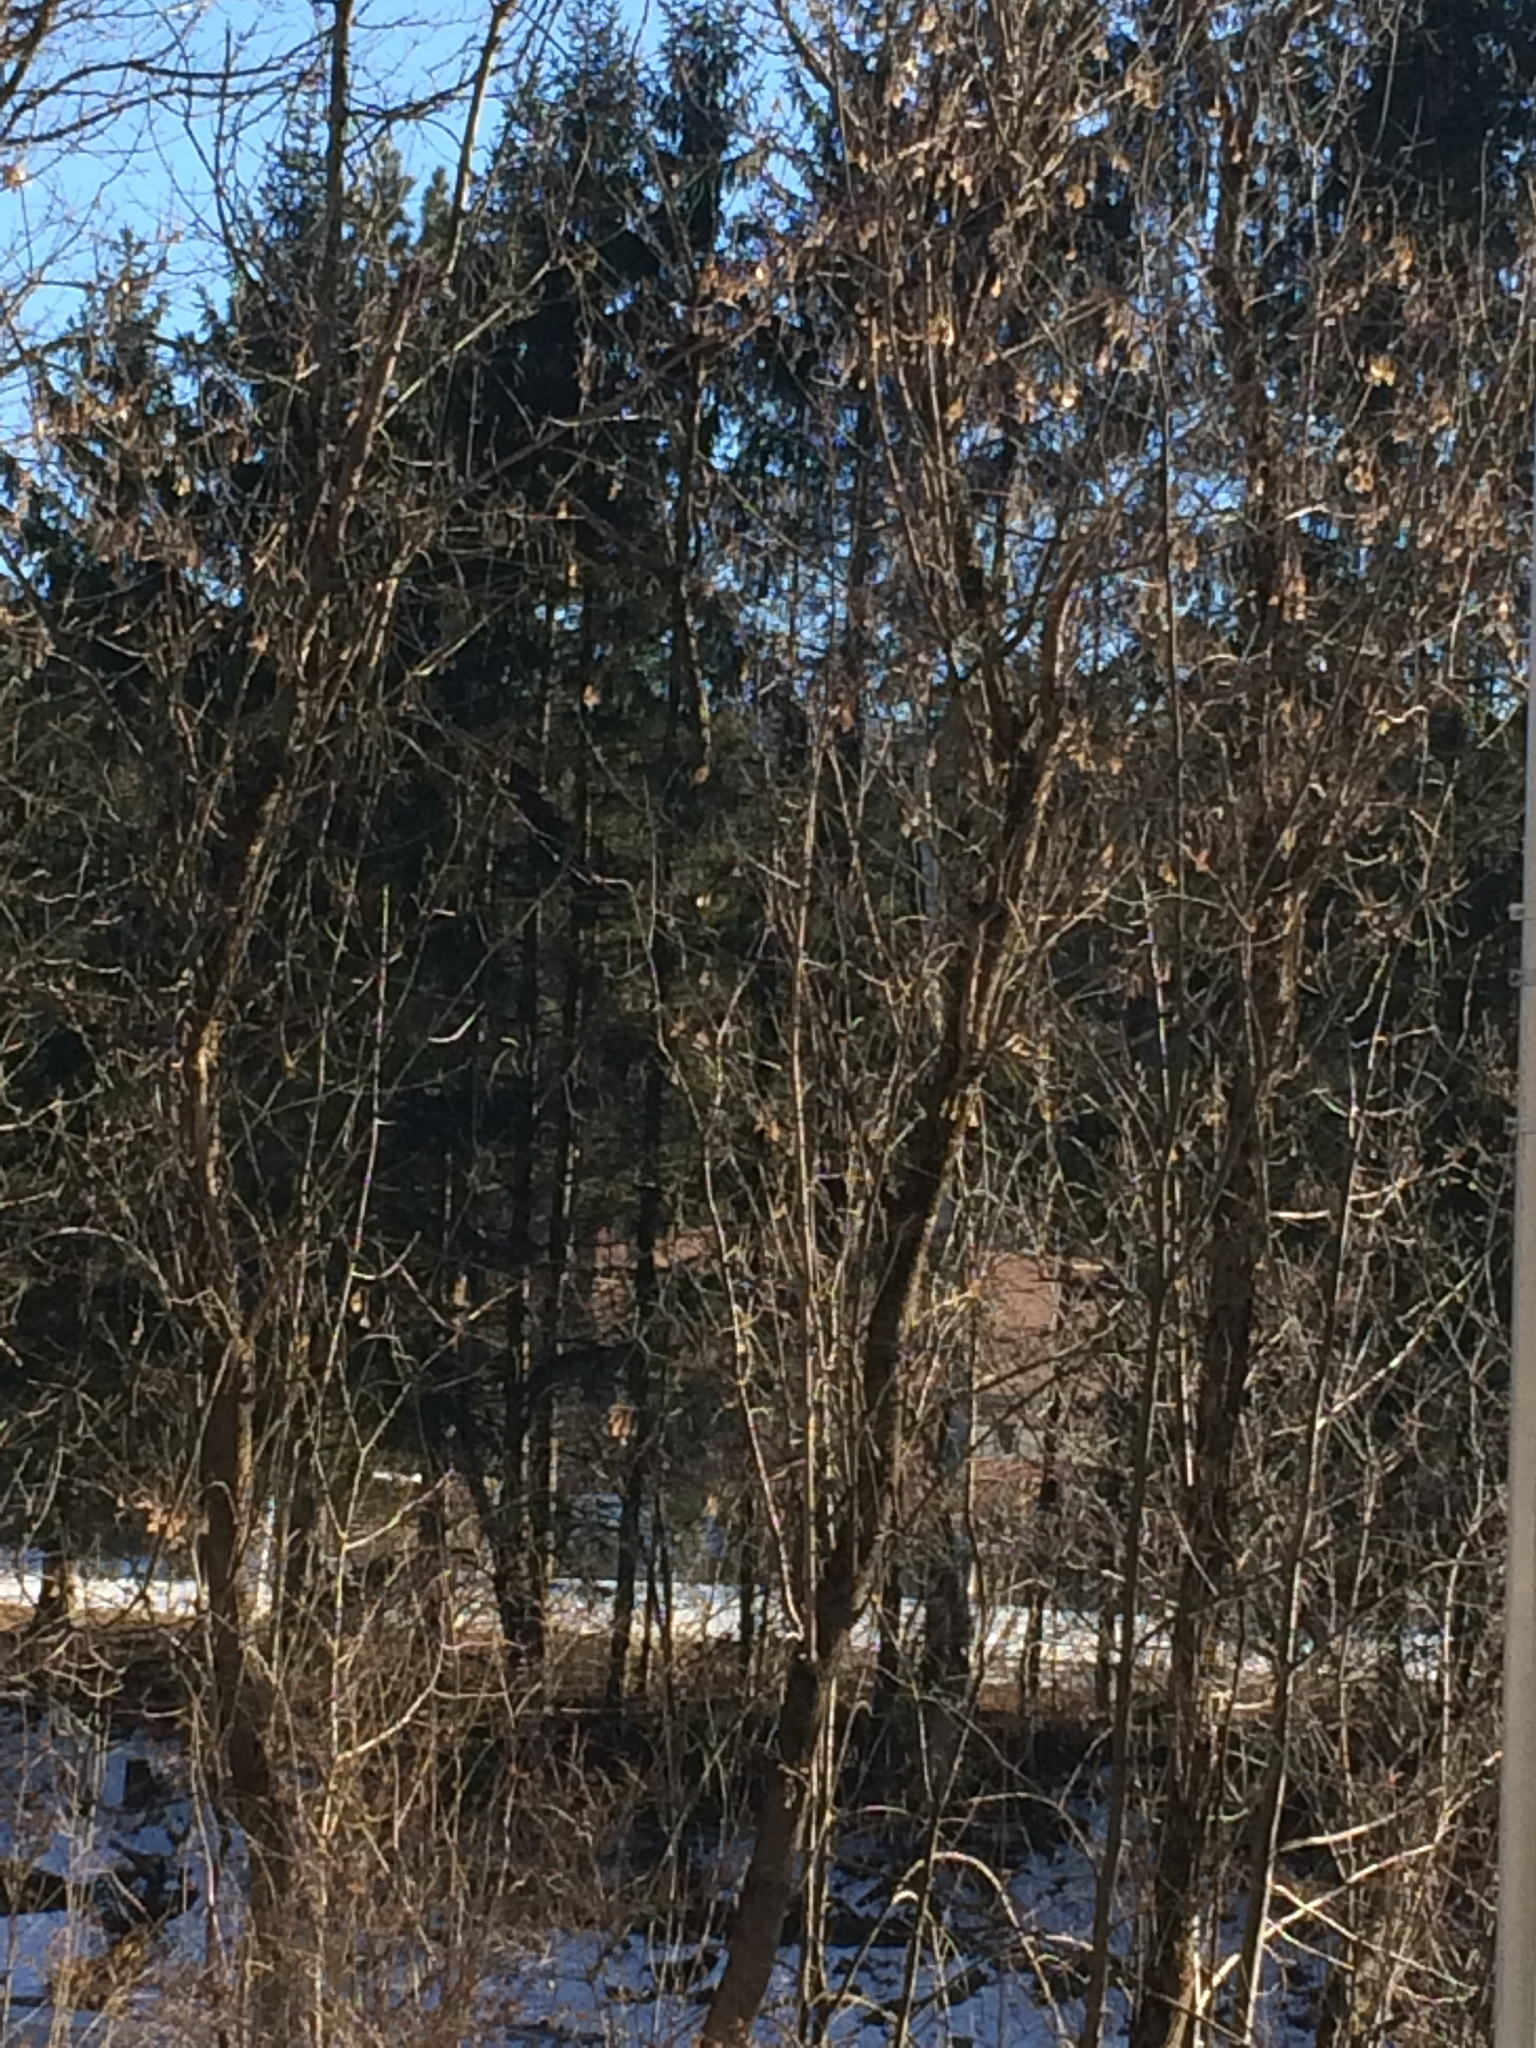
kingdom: Plantae
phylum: Tracheophyta
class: Magnoliopsida
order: Sapindales
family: Sapindaceae
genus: Acer
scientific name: Acer negundo
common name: Ashleaf maple
